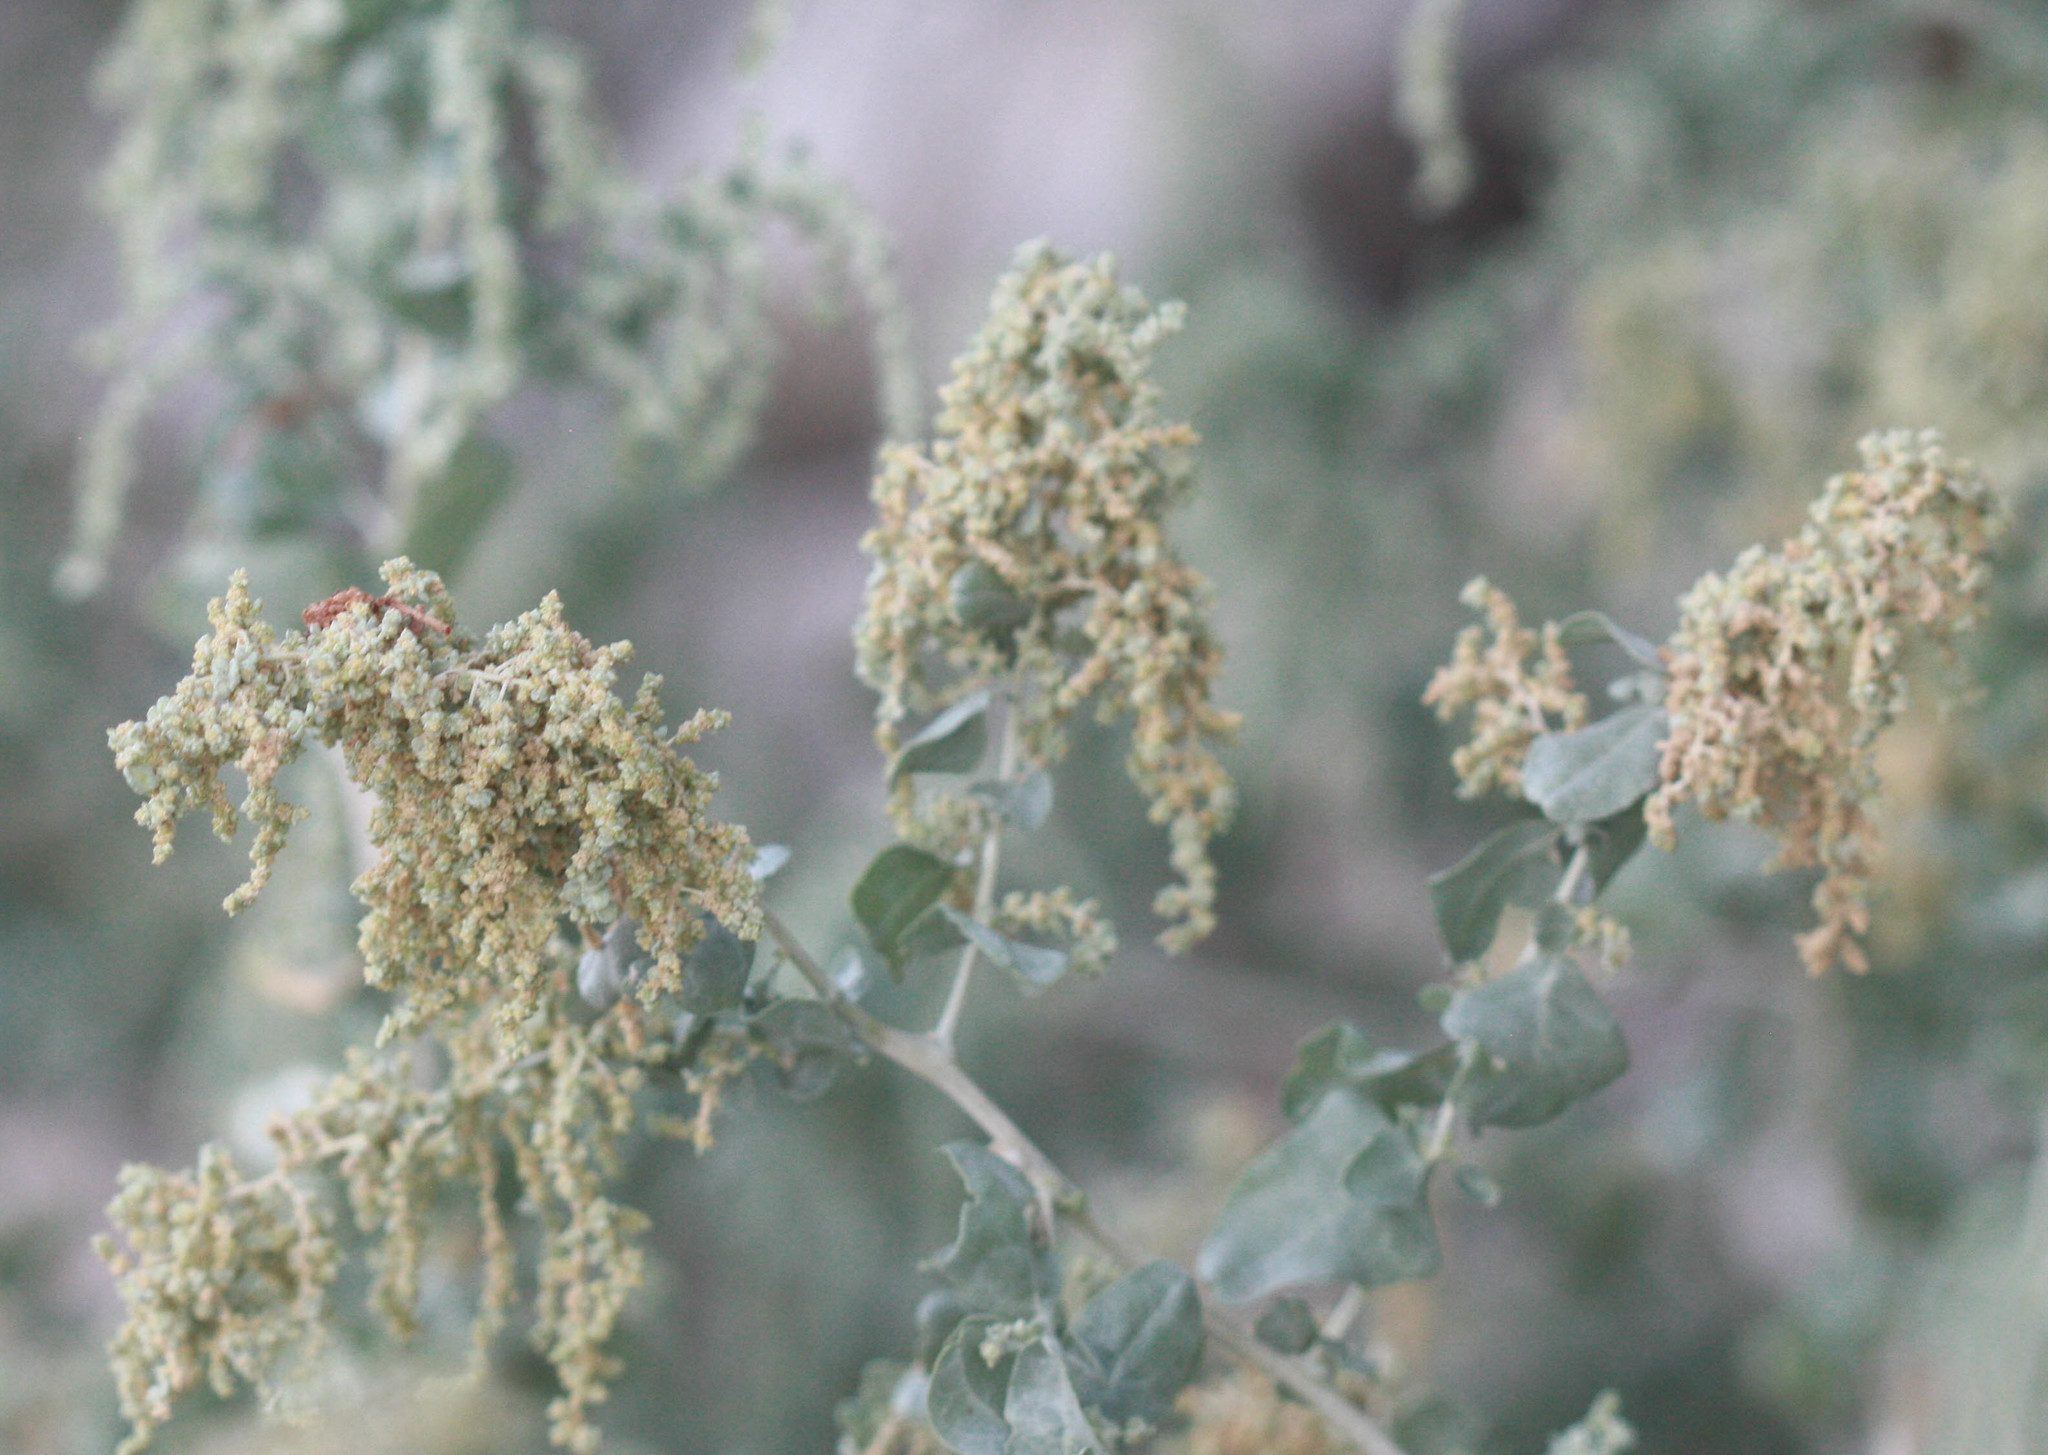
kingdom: Plantae
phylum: Tracheophyta
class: Magnoliopsida
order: Caryophyllales
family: Amaranthaceae
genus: Atriplex
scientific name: Atriplex lentiformis
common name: Big saltbush
